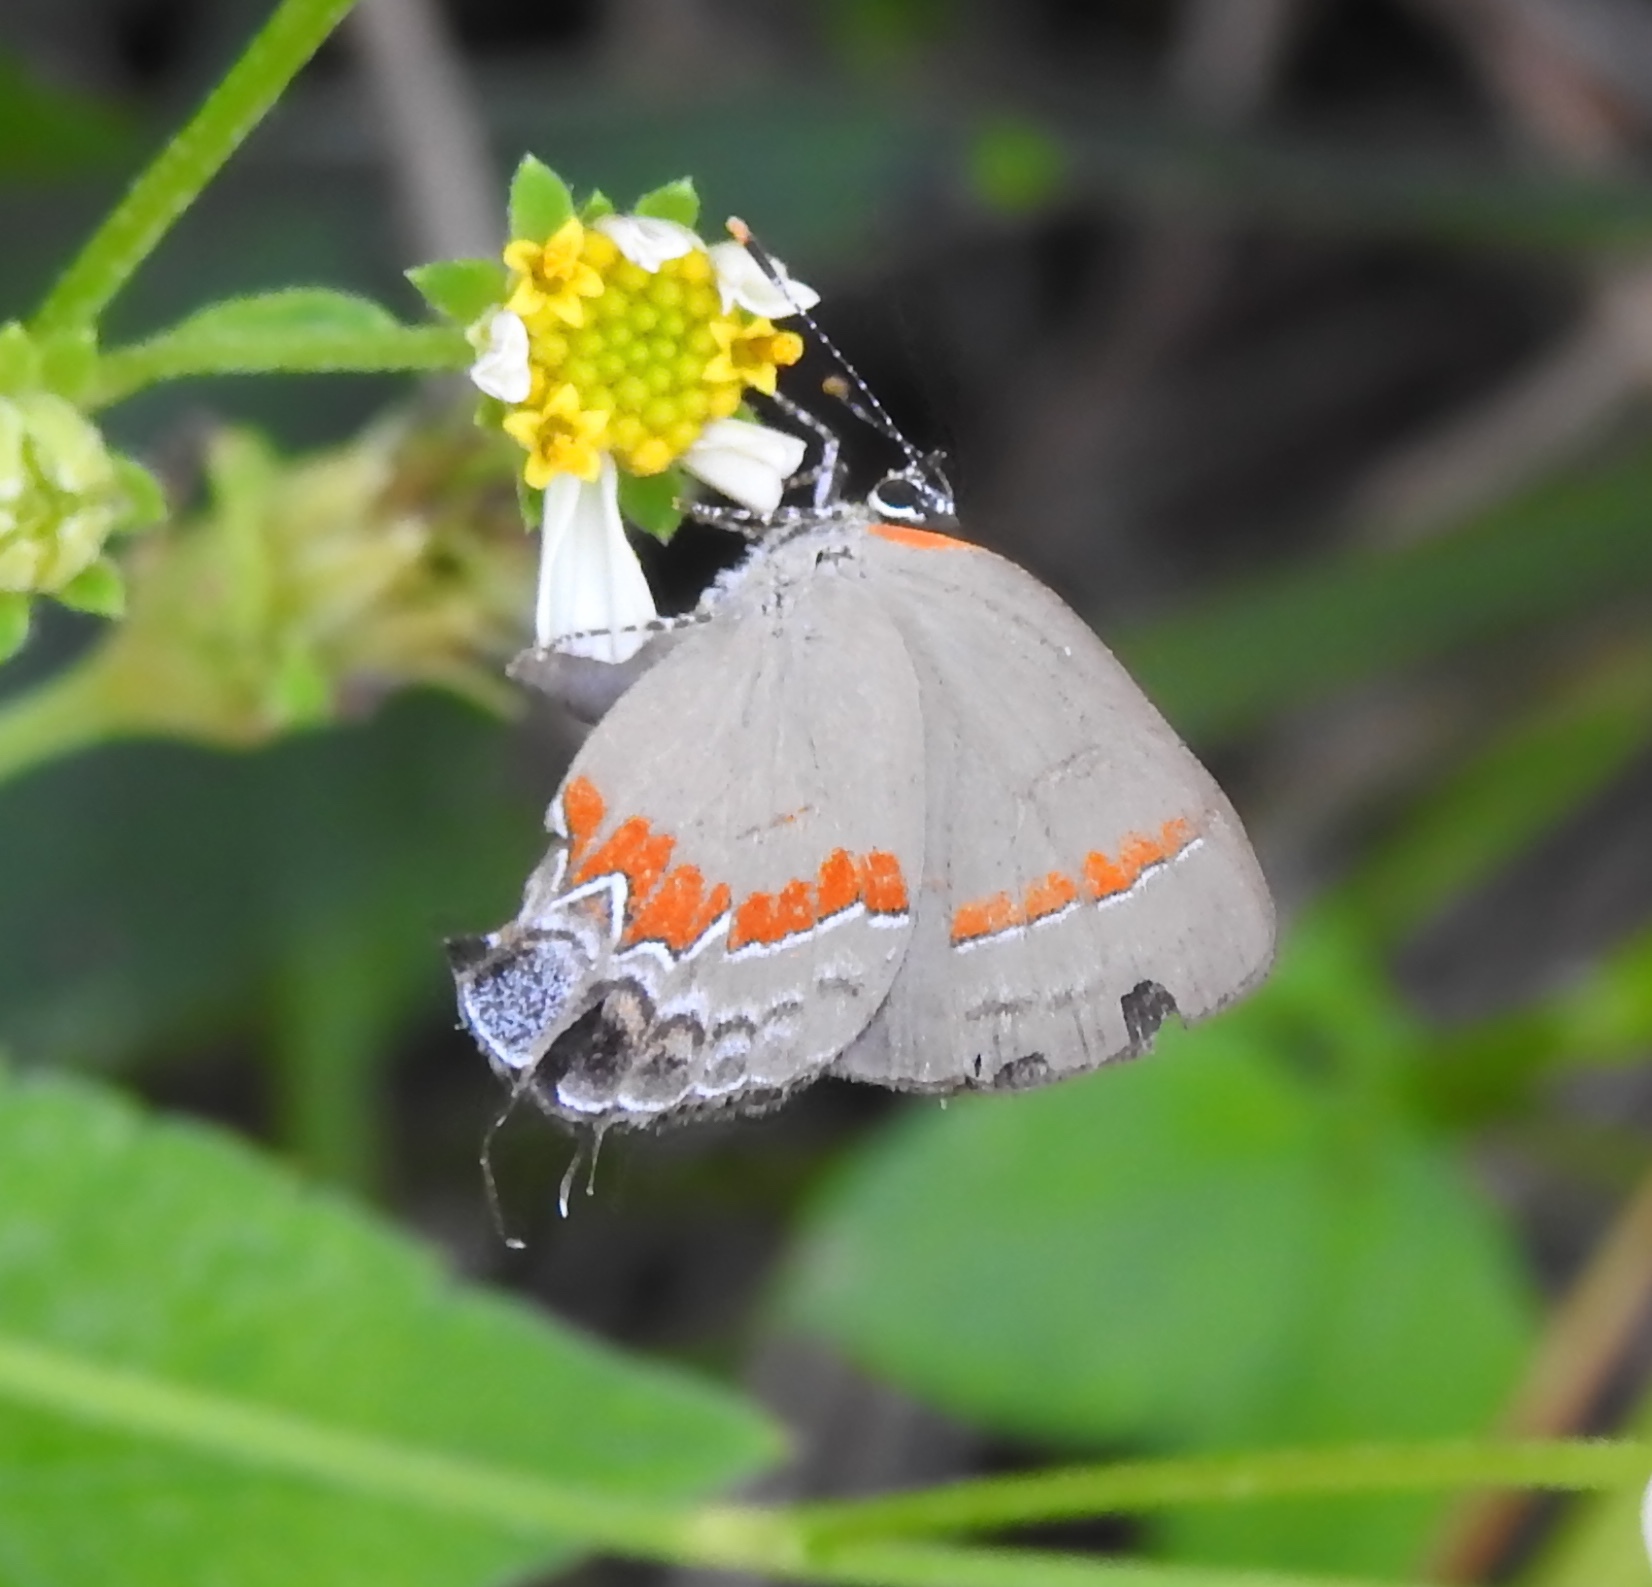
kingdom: Animalia
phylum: Arthropoda
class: Insecta
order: Lepidoptera
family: Lycaenidae
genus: Calycopis
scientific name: Calycopis cecrops
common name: Red-banded hairstreak
